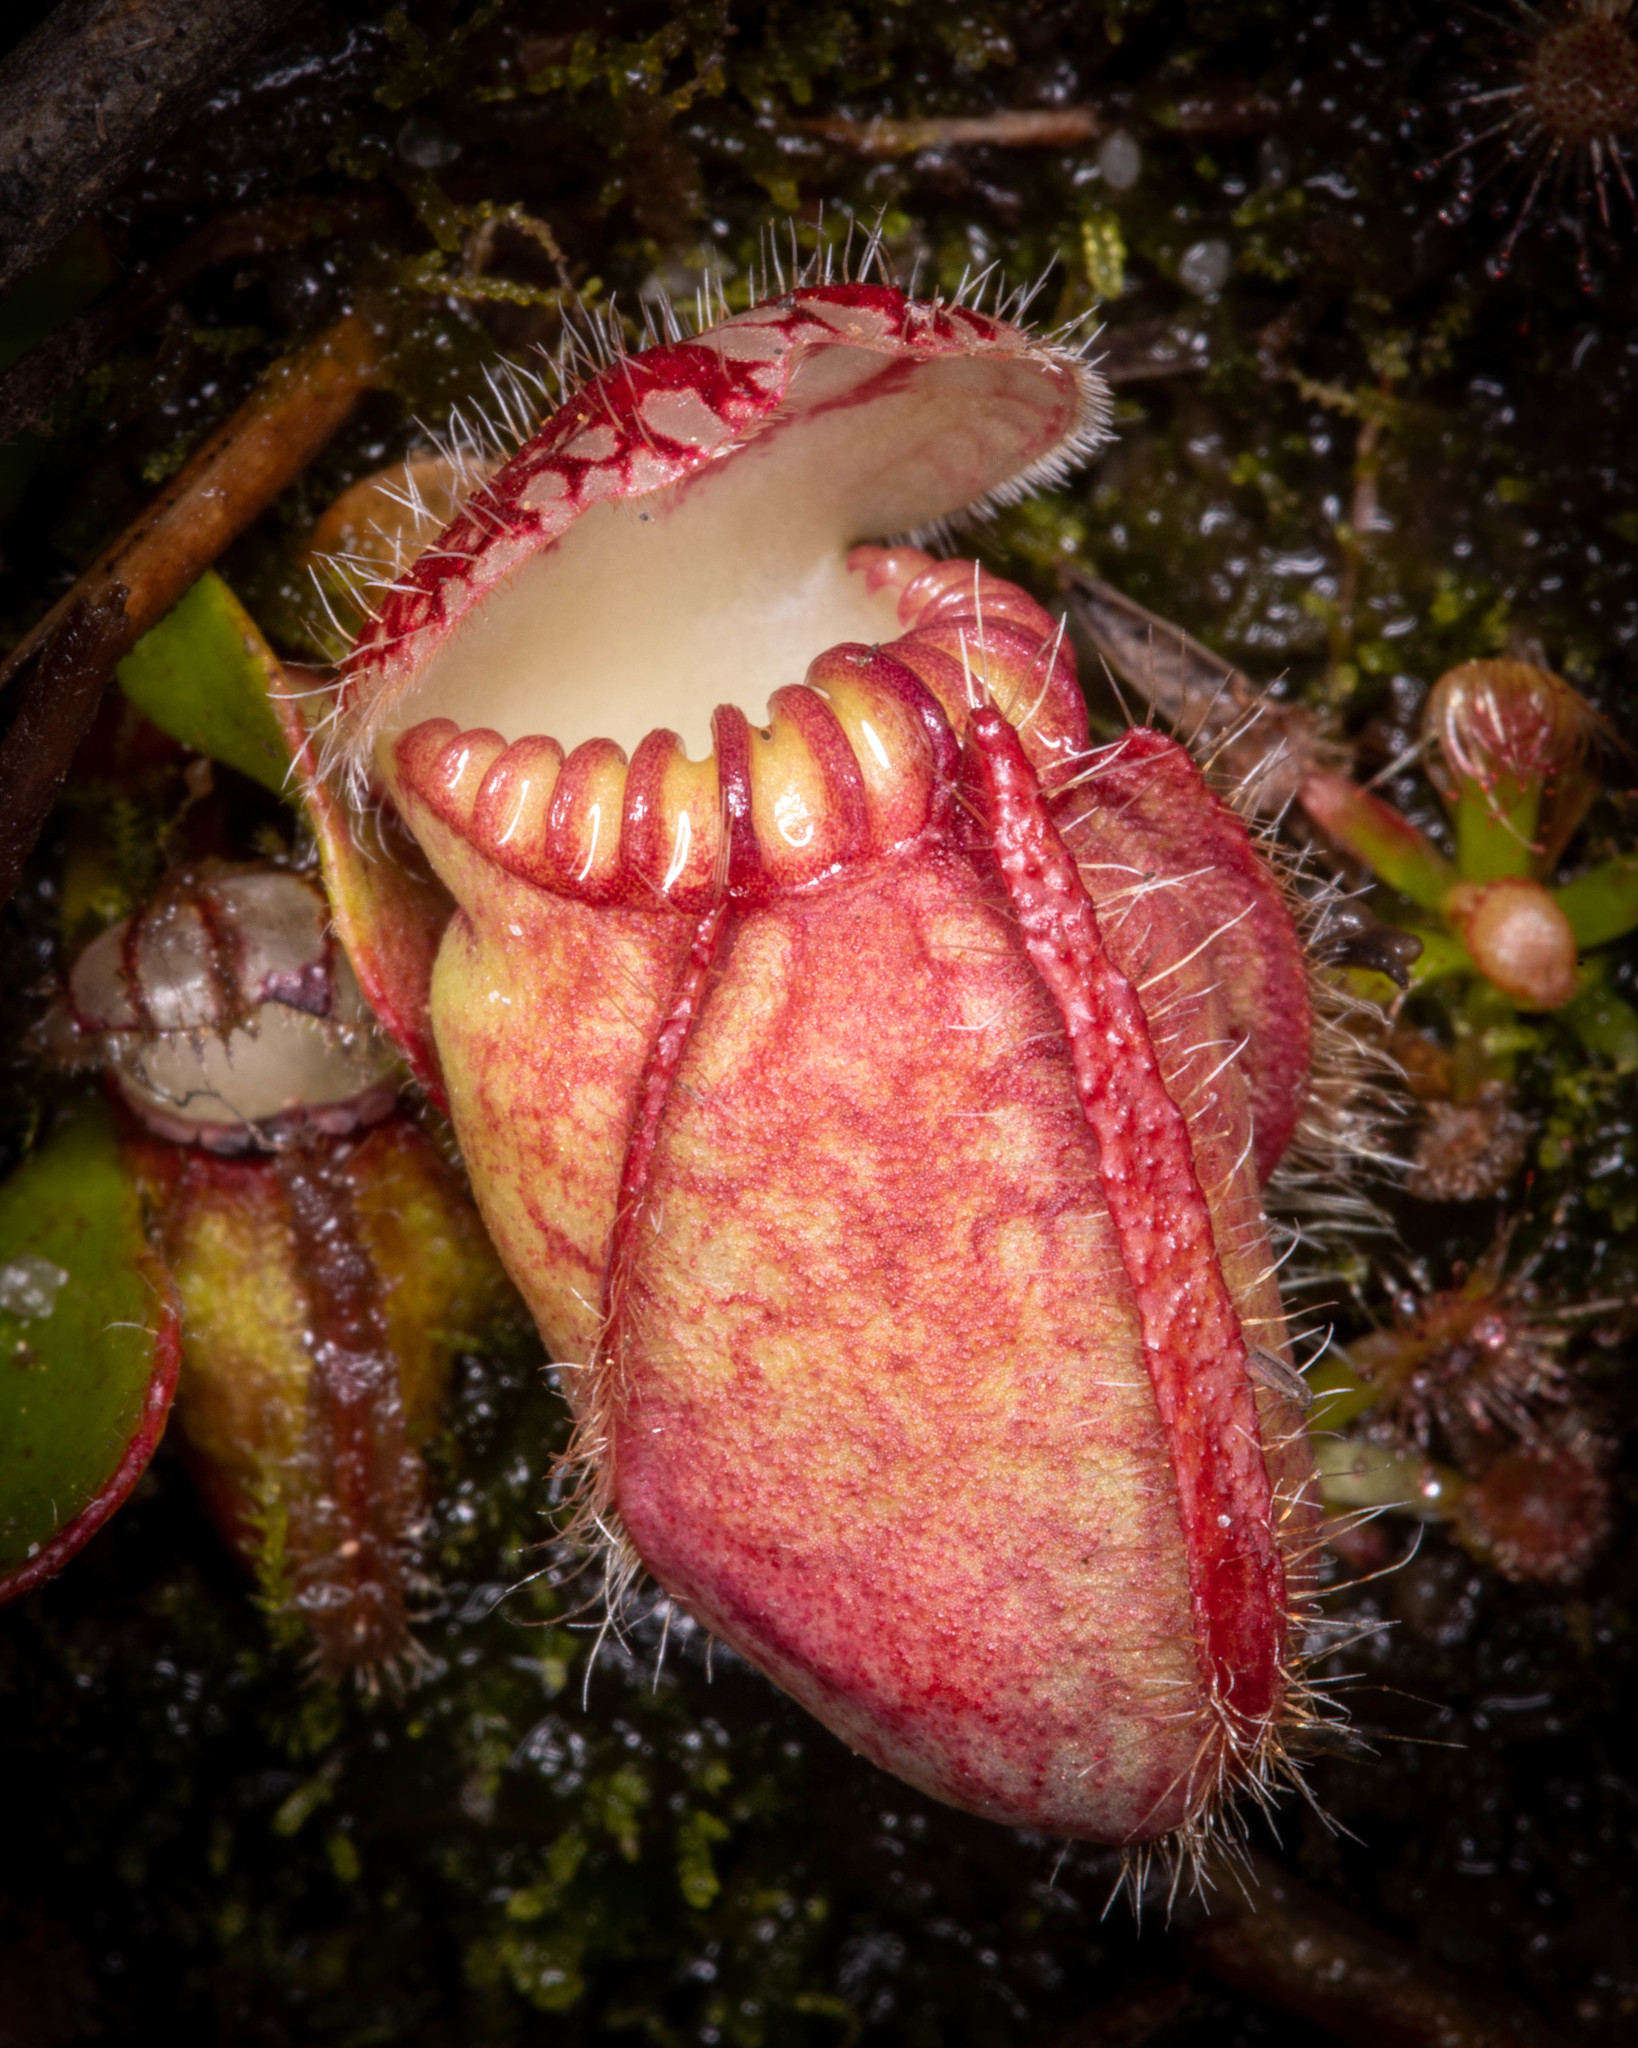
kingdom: Plantae
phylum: Tracheophyta
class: Magnoliopsida
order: Oxalidales
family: Cephalotaceae
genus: Cephalotus
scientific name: Cephalotus follicularis
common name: Australian pitcher plant
